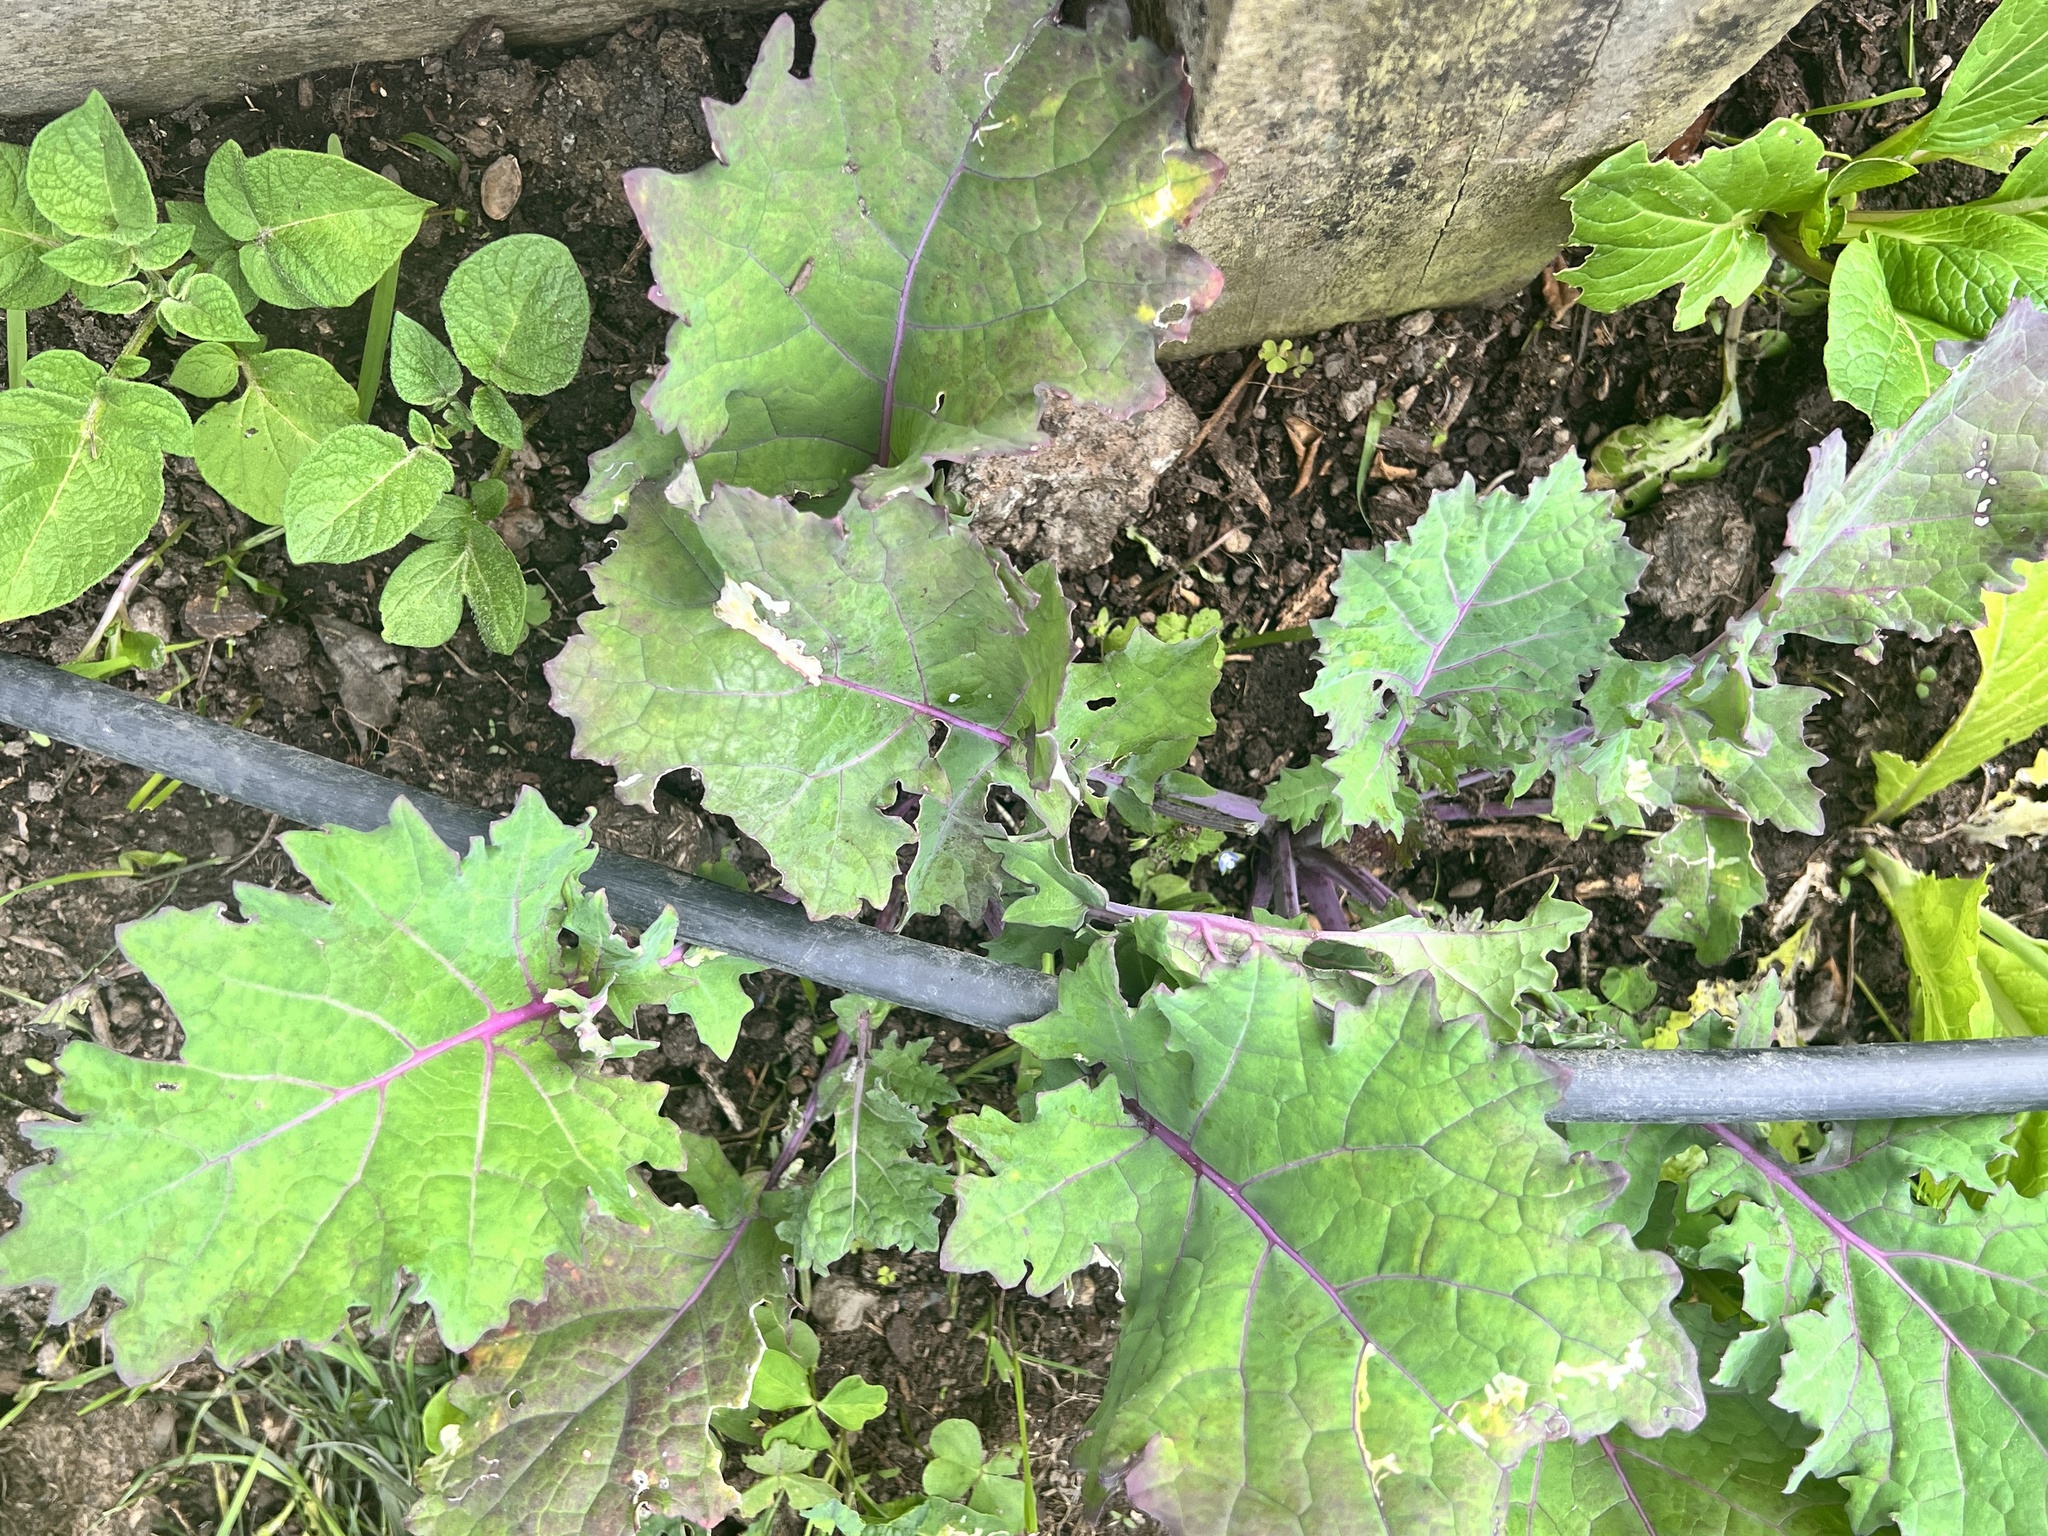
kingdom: Plantae
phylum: Tracheophyta
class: Magnoliopsida
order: Brassicales
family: Brassicaceae
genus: Brassica
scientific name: Brassica oleracea
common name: Cabbage
